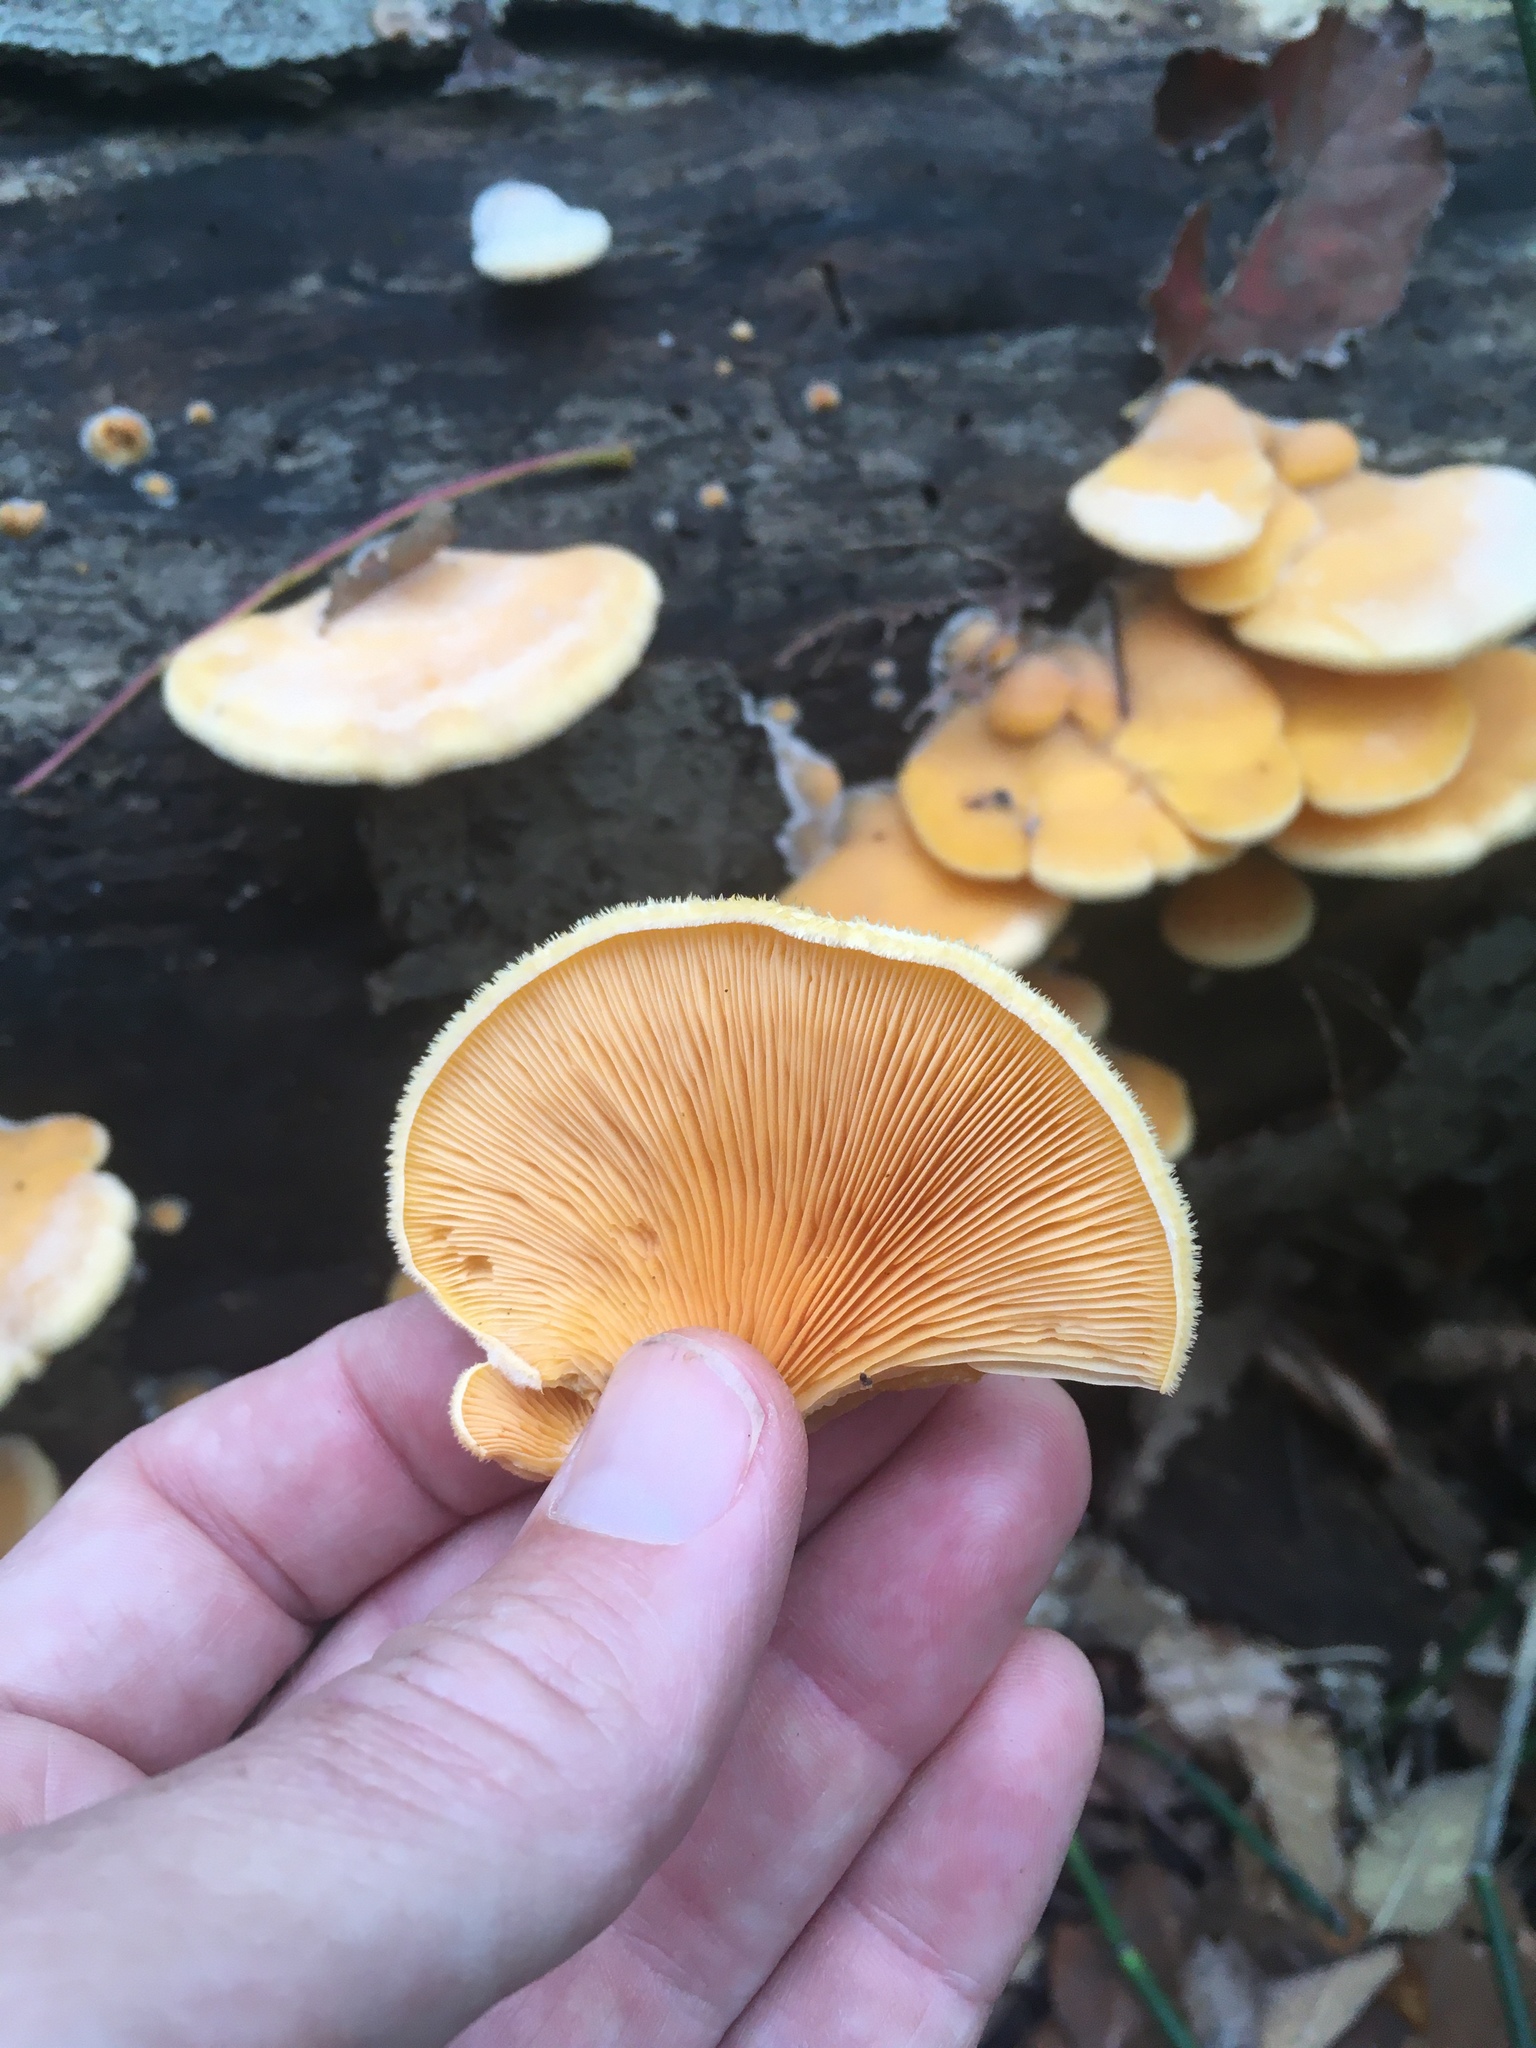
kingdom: Fungi
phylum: Basidiomycota
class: Agaricomycetes
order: Agaricales
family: Phyllotopsidaceae
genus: Phyllotopsis
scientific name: Phyllotopsis nidulans
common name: Orange mock oyster
